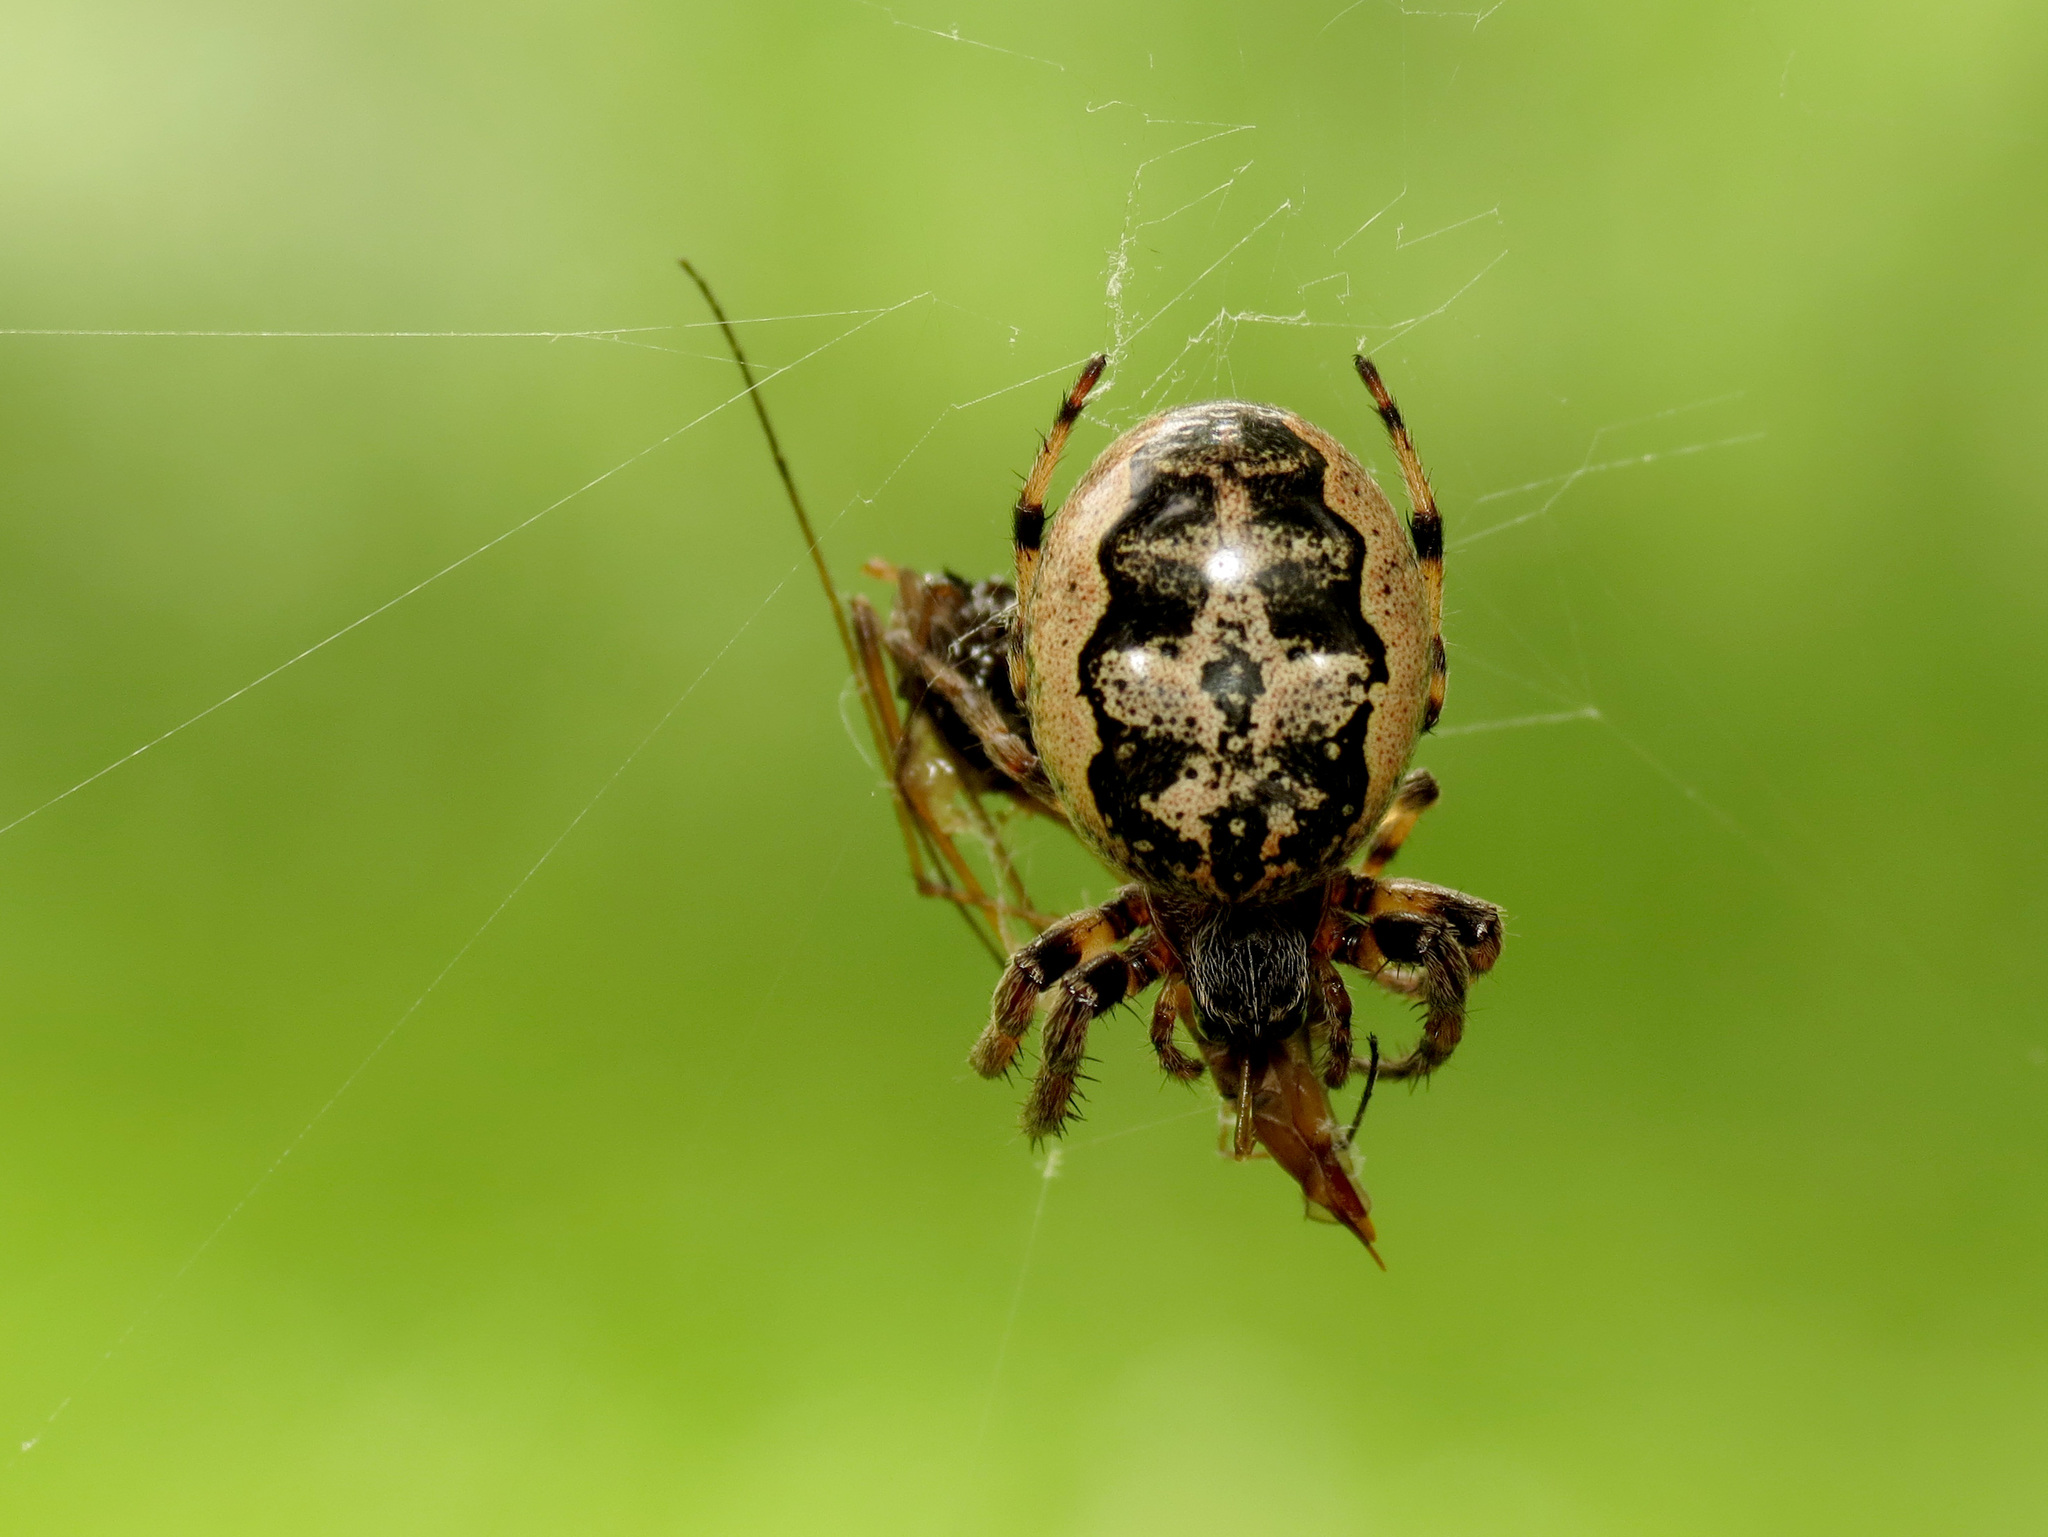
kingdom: Animalia
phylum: Arthropoda
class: Arachnida
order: Araneae
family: Araneidae
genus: Larinioides
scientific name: Larinioides cornutus
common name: Furrow orbweaver
